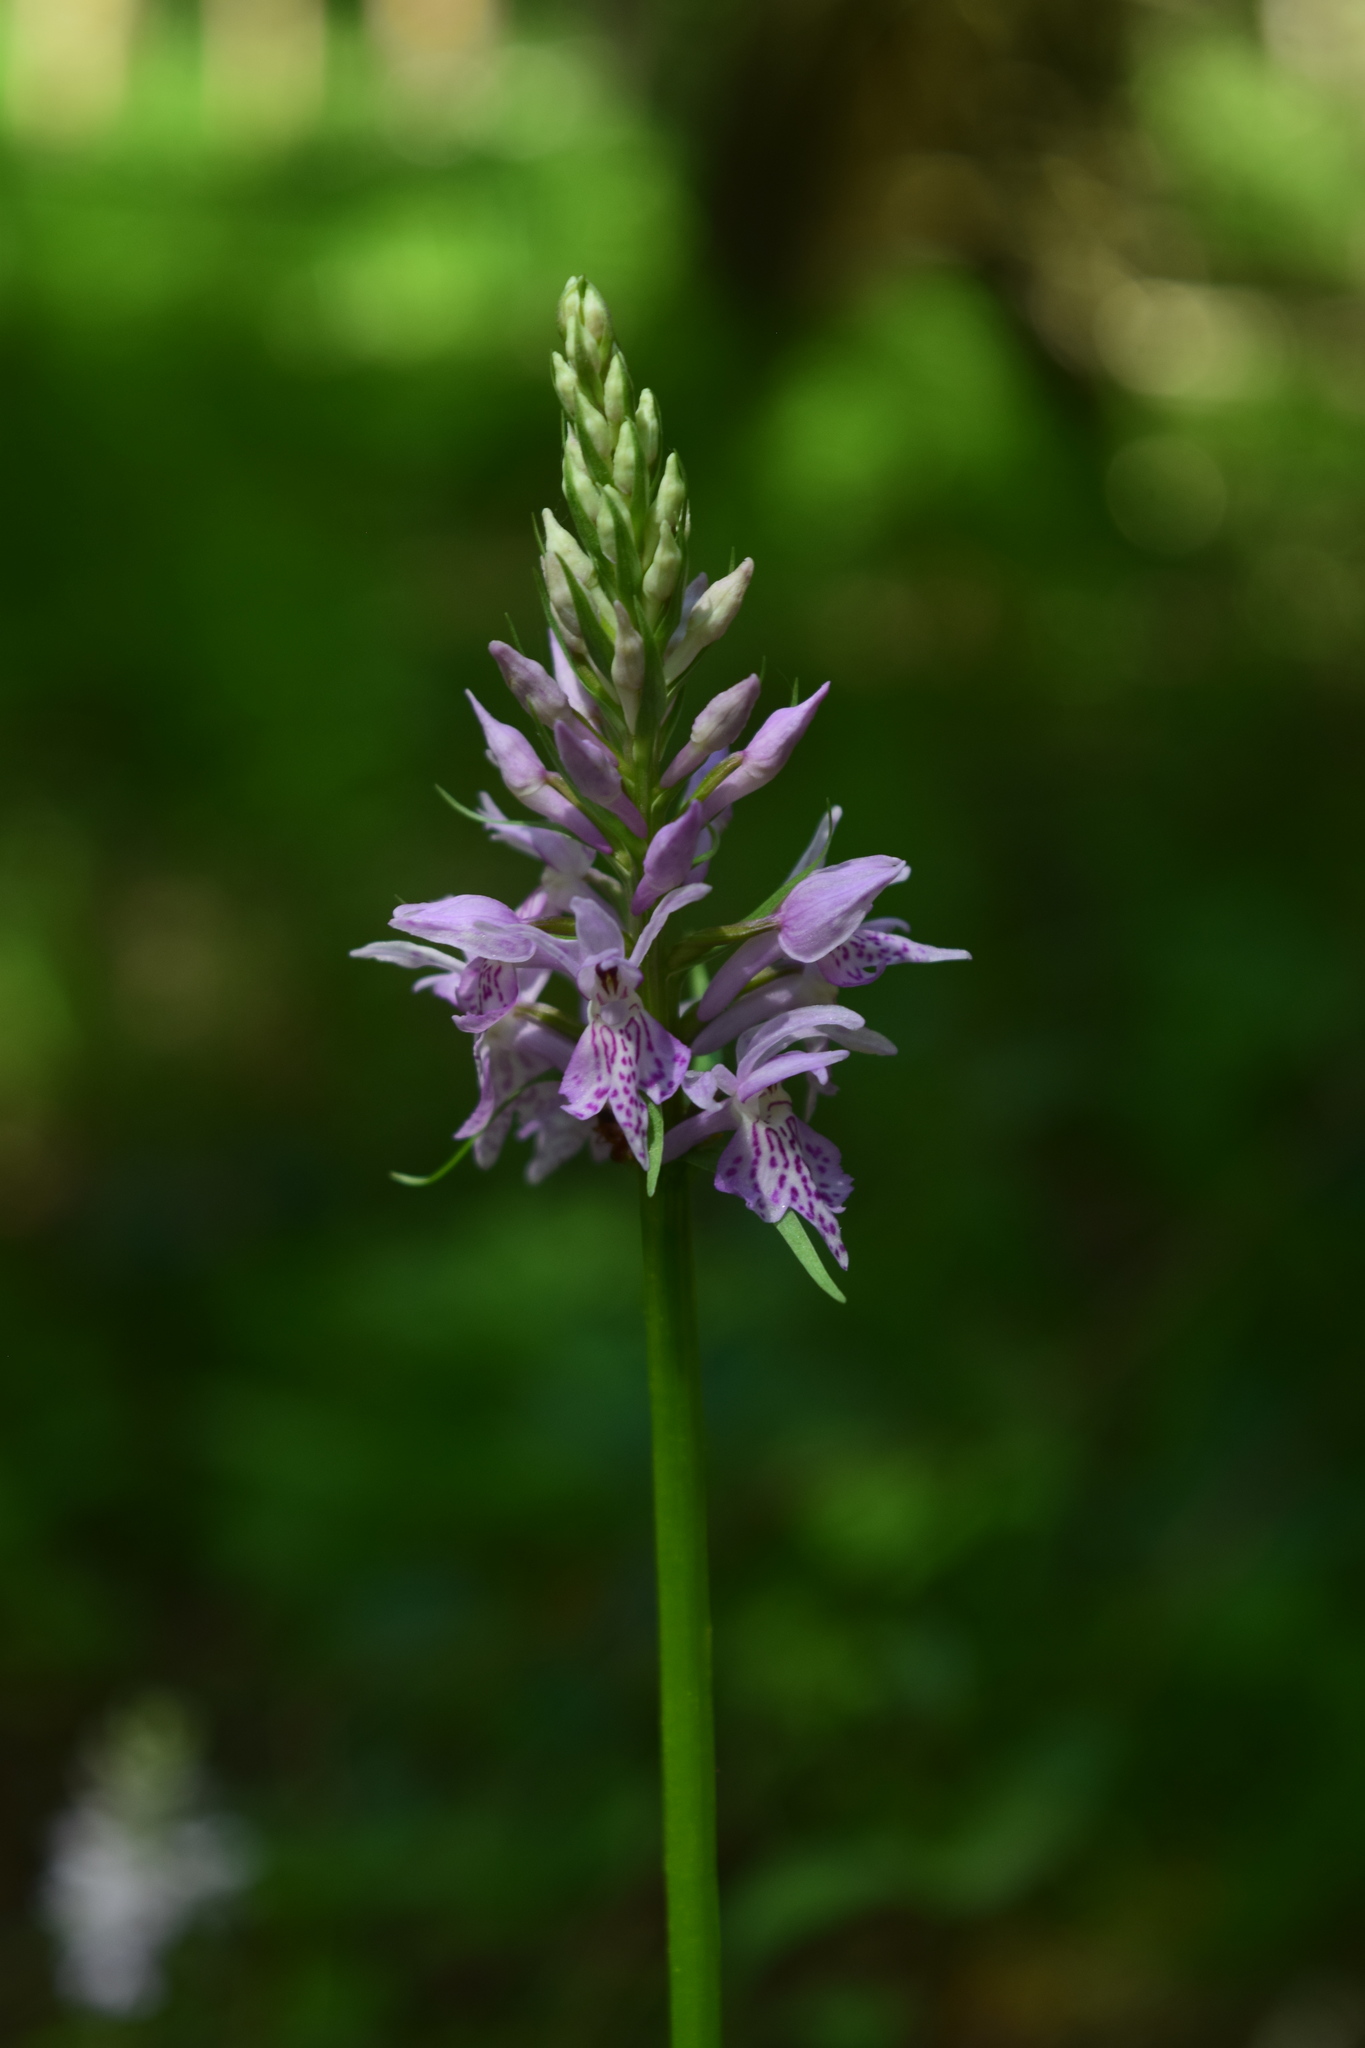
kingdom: Plantae
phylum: Tracheophyta
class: Liliopsida
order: Asparagales
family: Orchidaceae
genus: Dactylorhiza
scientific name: Dactylorhiza maculata
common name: Heath spotted-orchid
